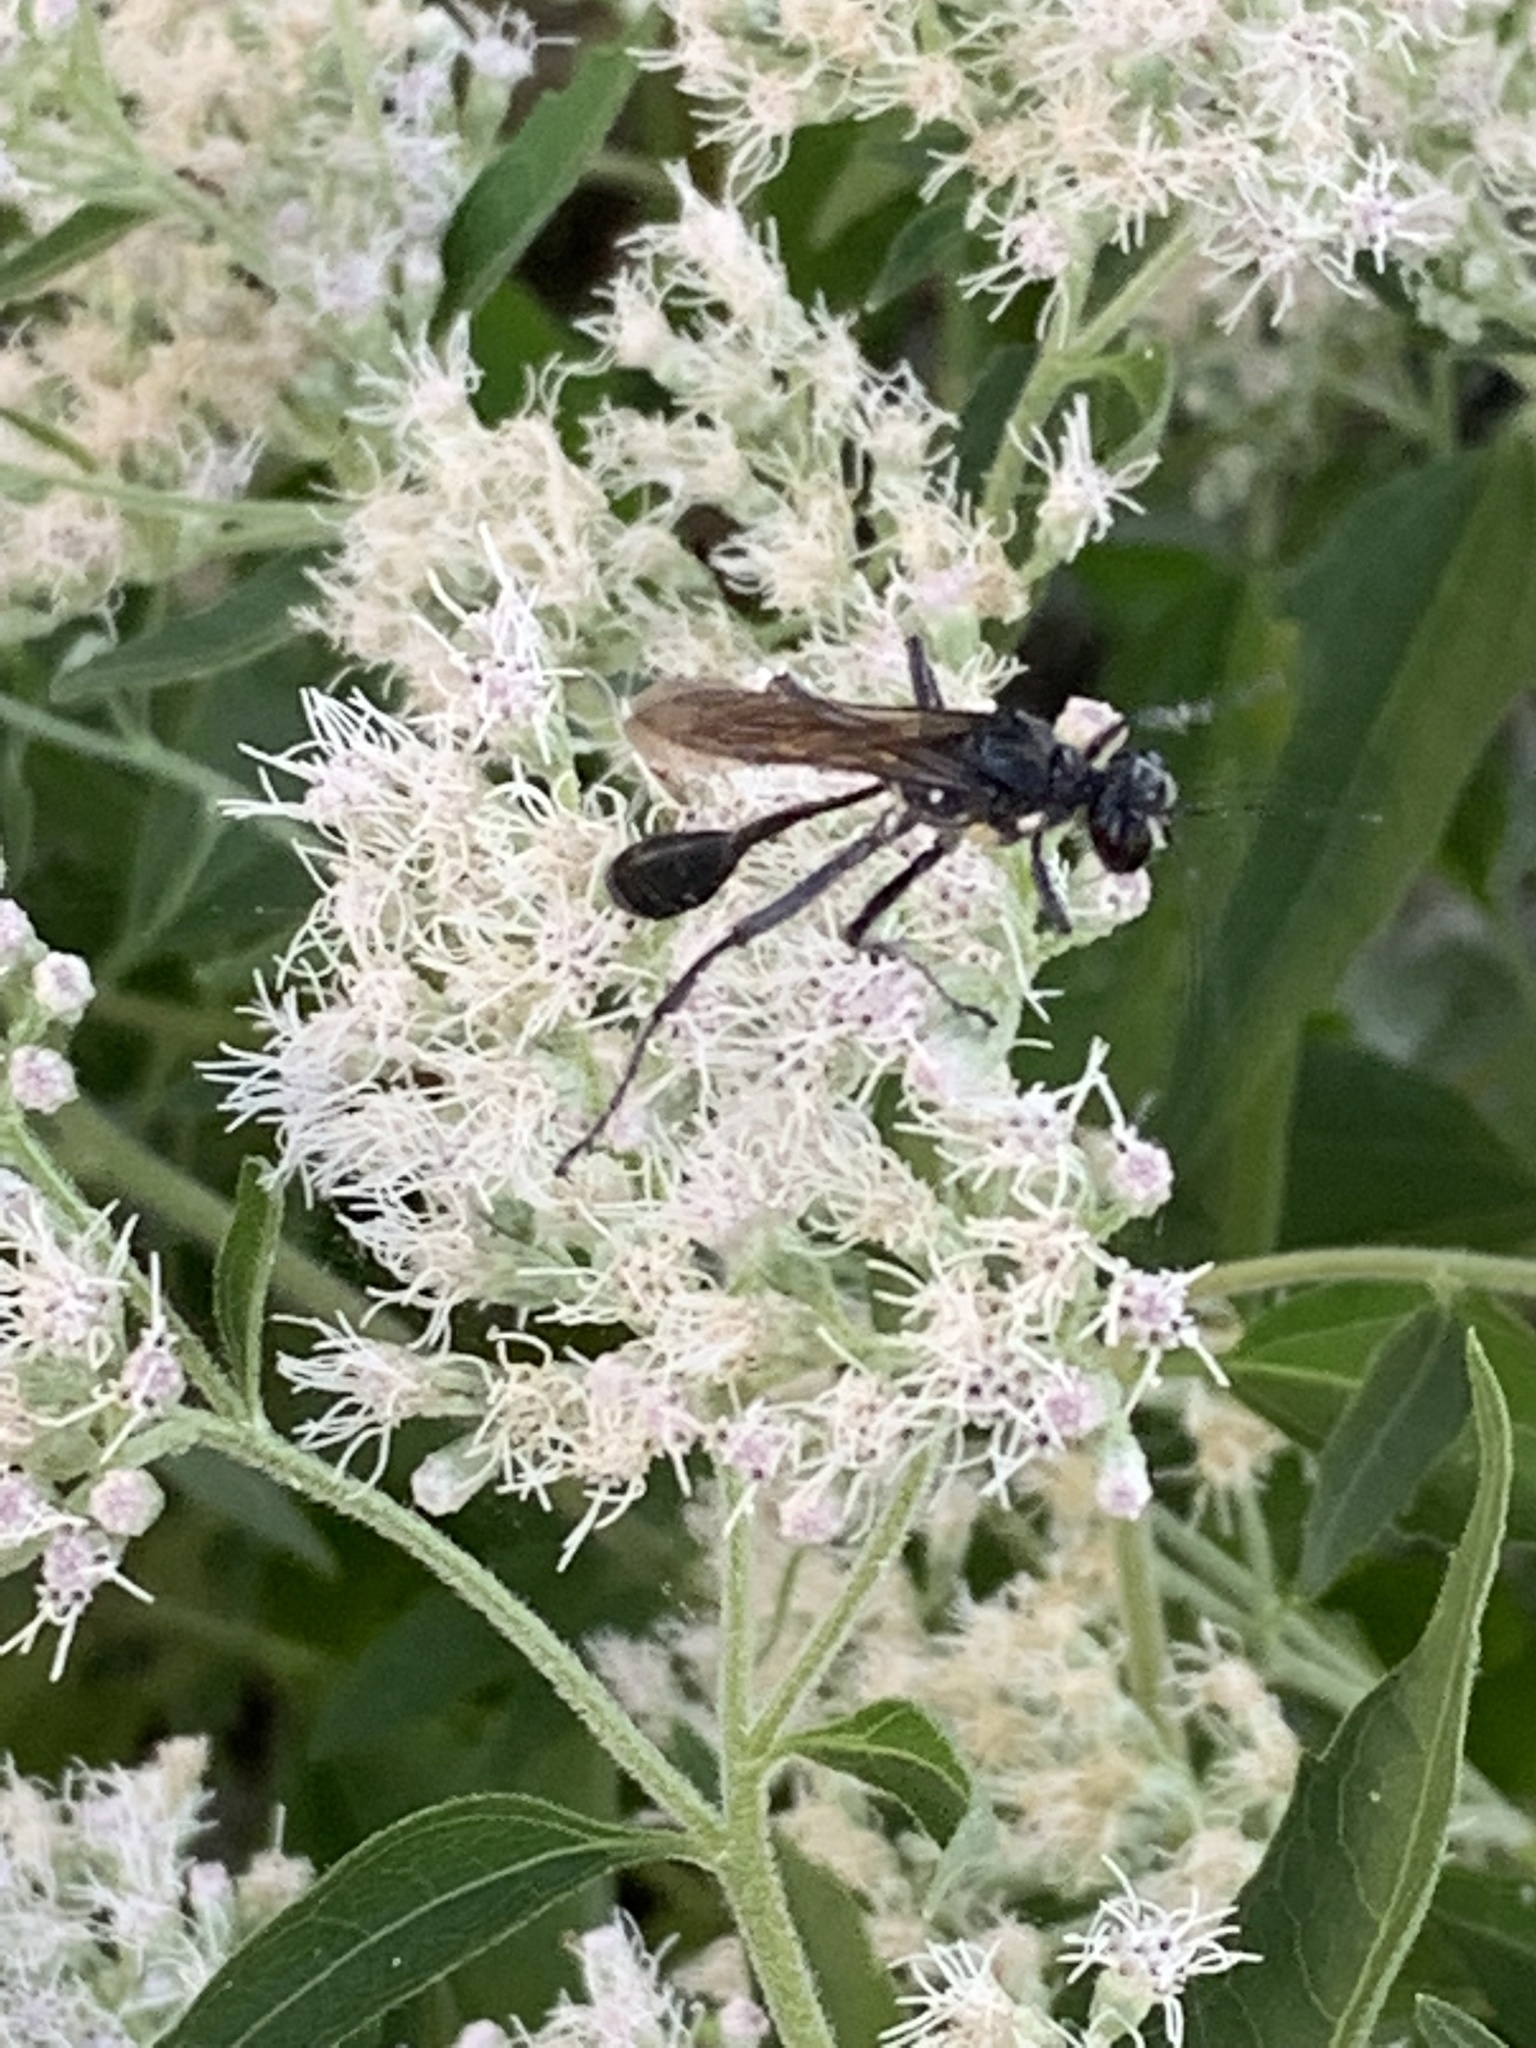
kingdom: Animalia
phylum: Arthropoda
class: Insecta
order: Hymenoptera
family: Sphecidae
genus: Eremnophila
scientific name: Eremnophila aureonotata
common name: Gold-marked thread-waisted wasp
